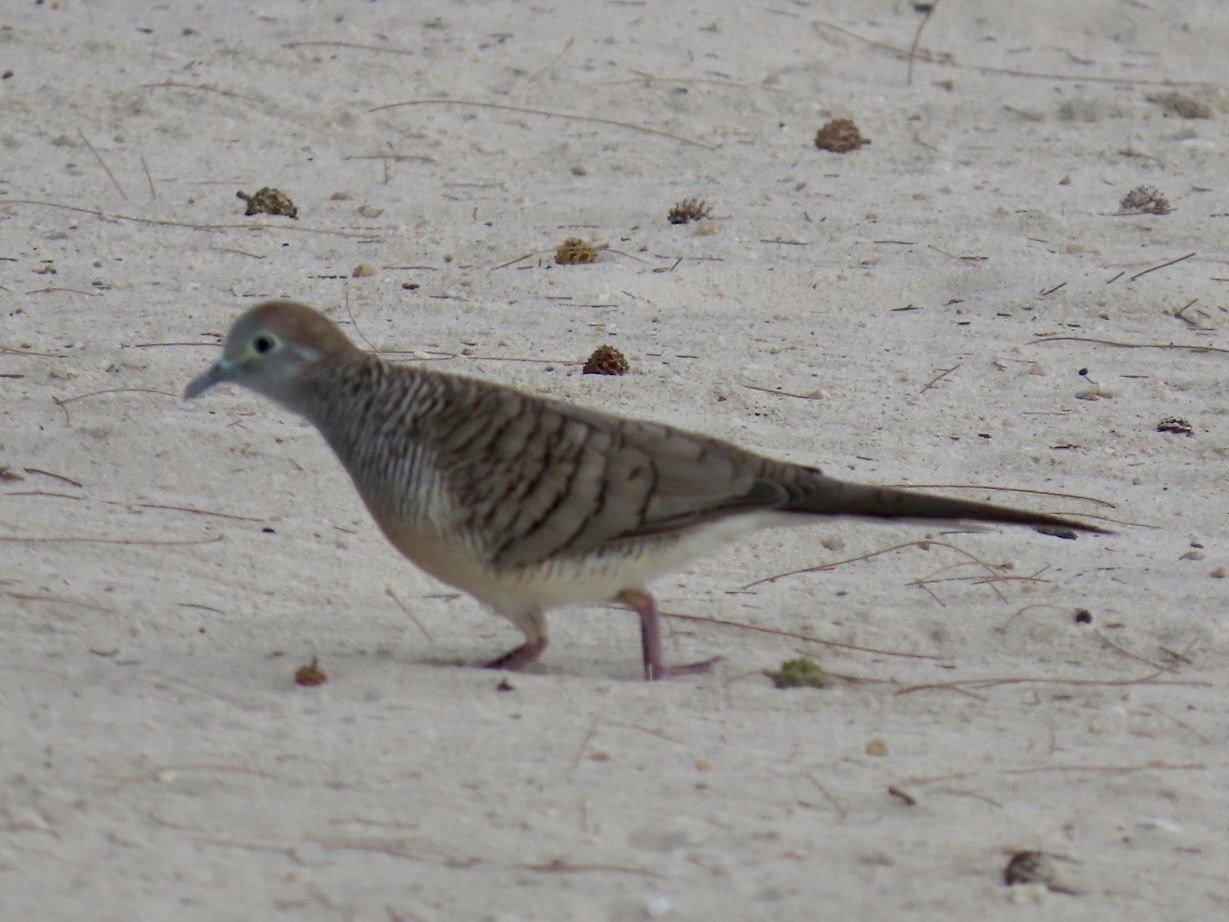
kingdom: Animalia
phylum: Chordata
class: Aves
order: Columbiformes
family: Columbidae
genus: Geopelia
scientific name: Geopelia striata
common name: Zebra dove
